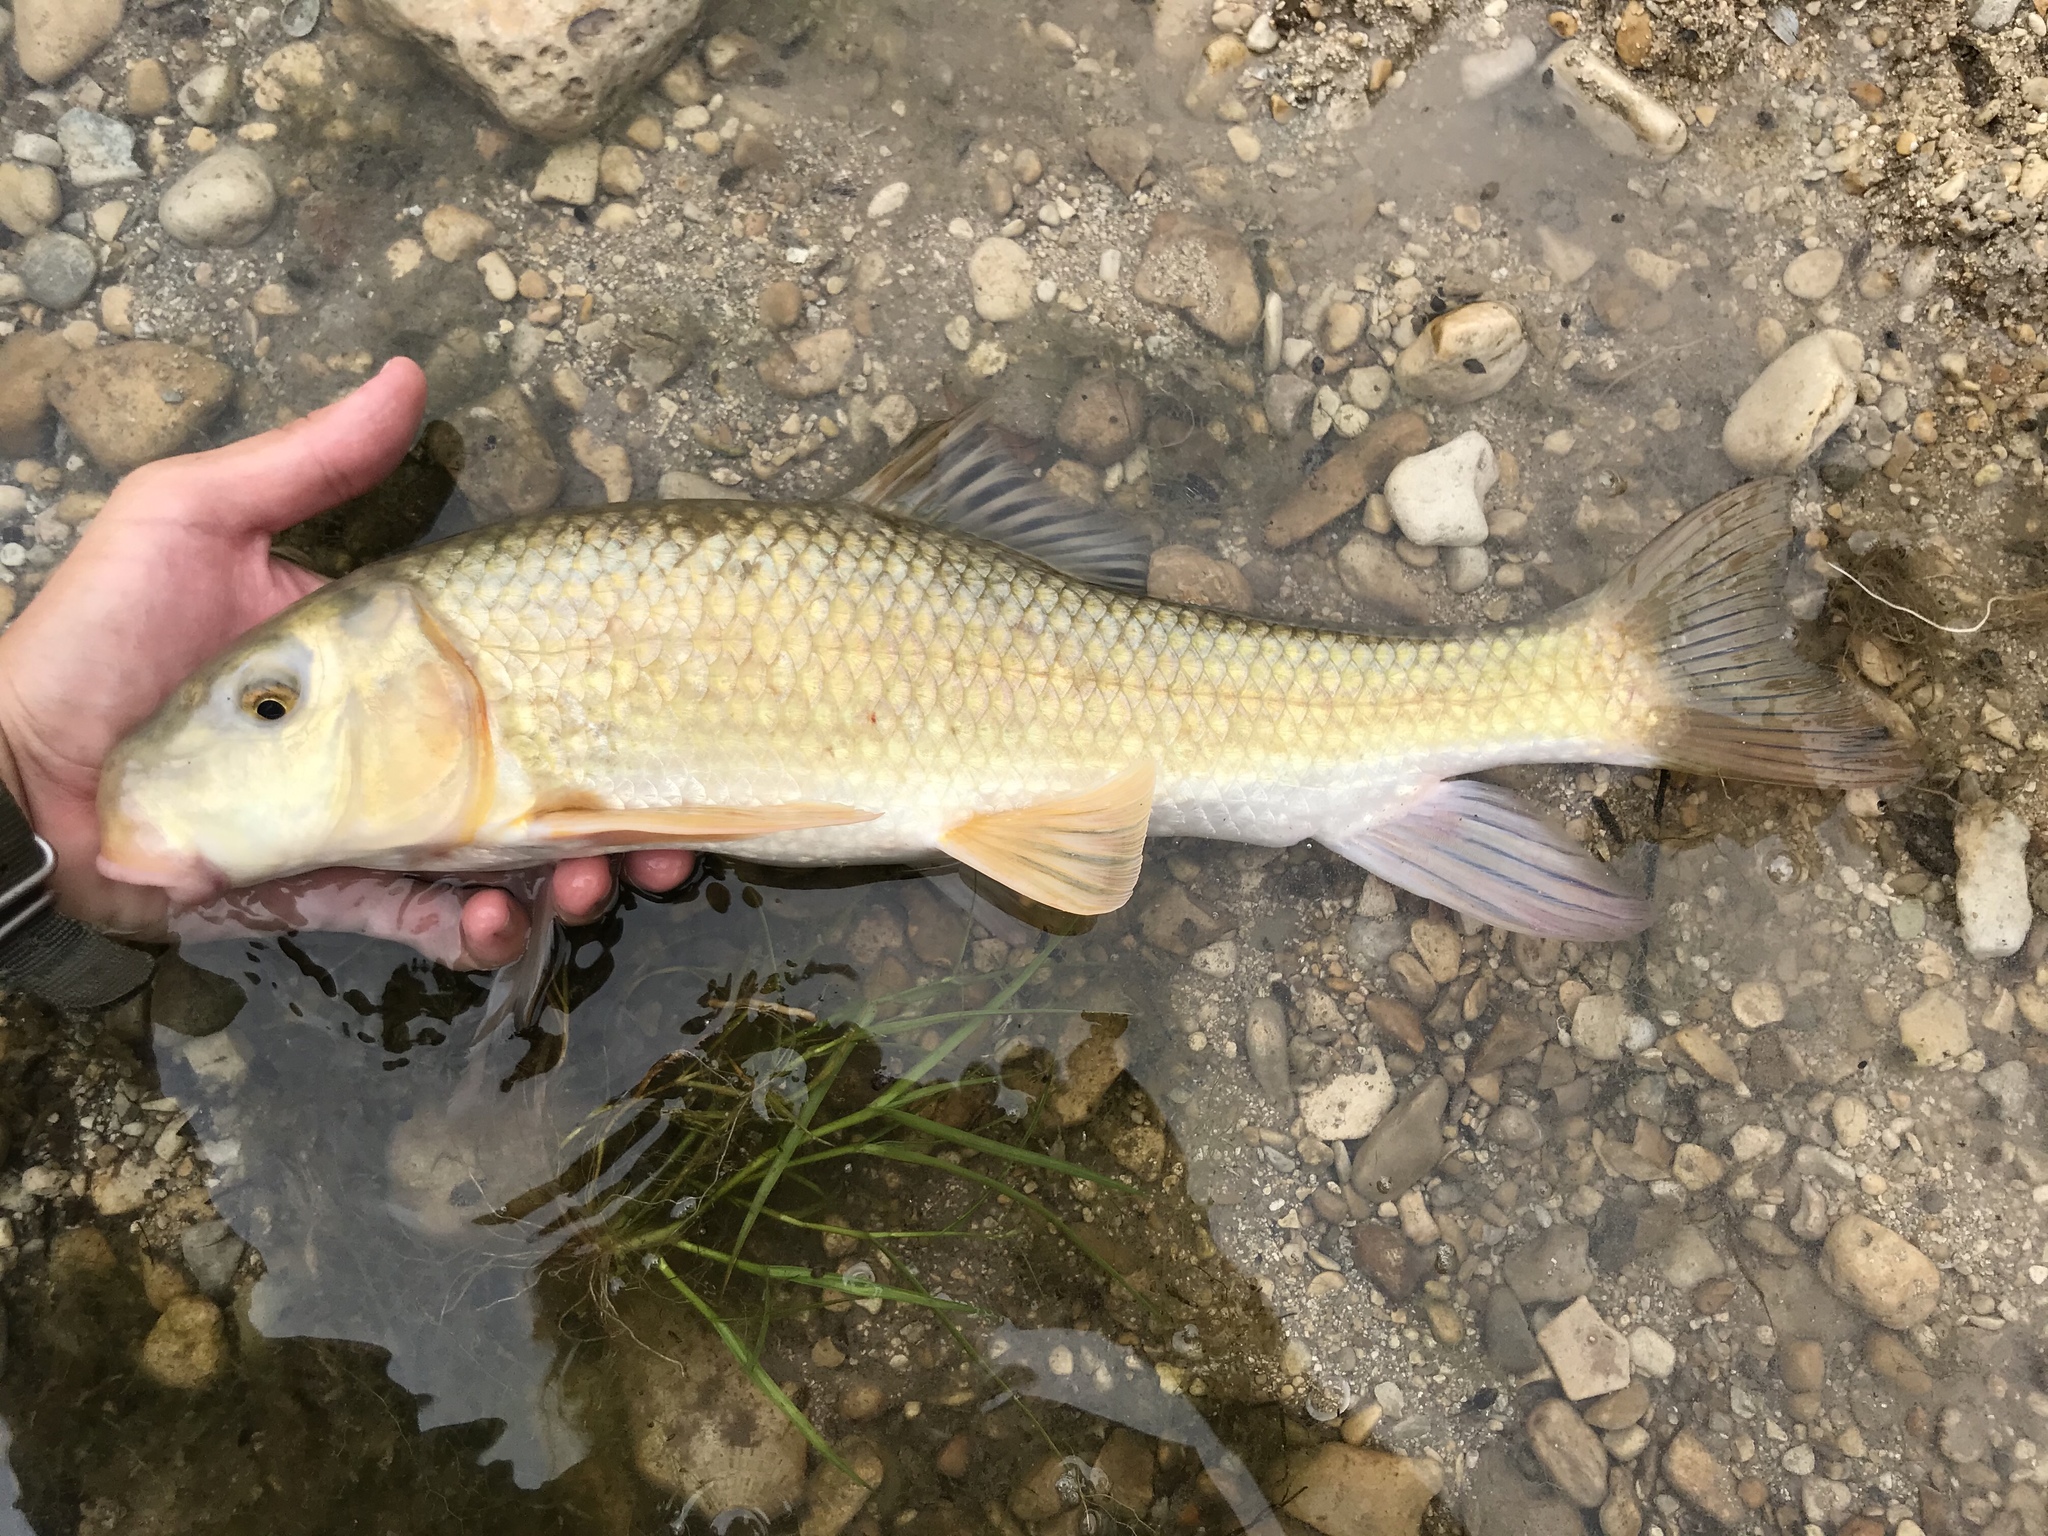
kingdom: Animalia
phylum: Chordata
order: Cypriniformes
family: Catostomidae
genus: Moxostoma
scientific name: Moxostoma congestum
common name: Gray redhorse
